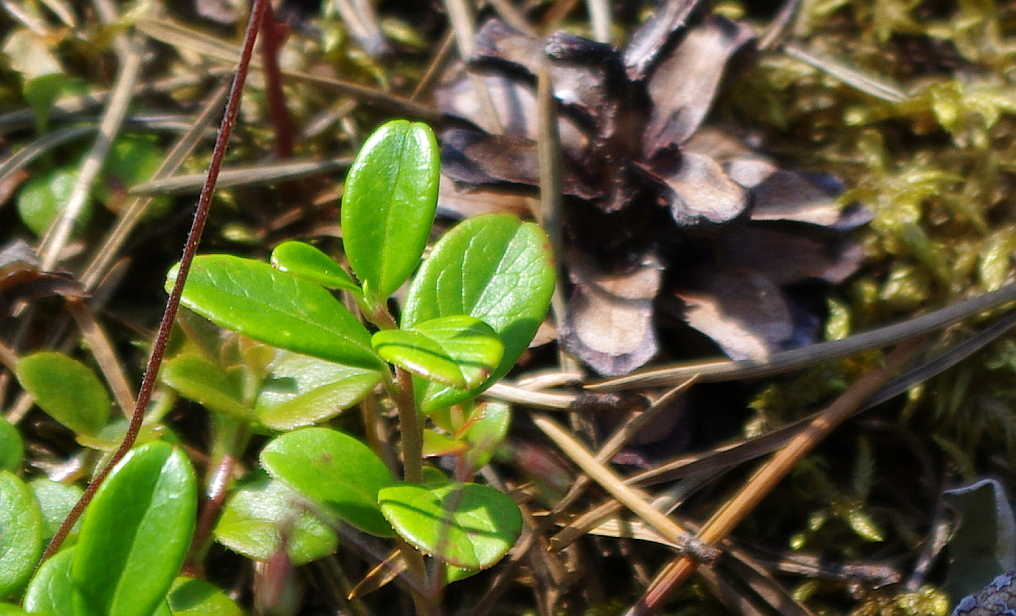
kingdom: Plantae
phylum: Tracheophyta
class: Magnoliopsida
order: Ericales
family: Ericaceae
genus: Vaccinium
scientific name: Vaccinium vitis-idaea
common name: Cowberry
